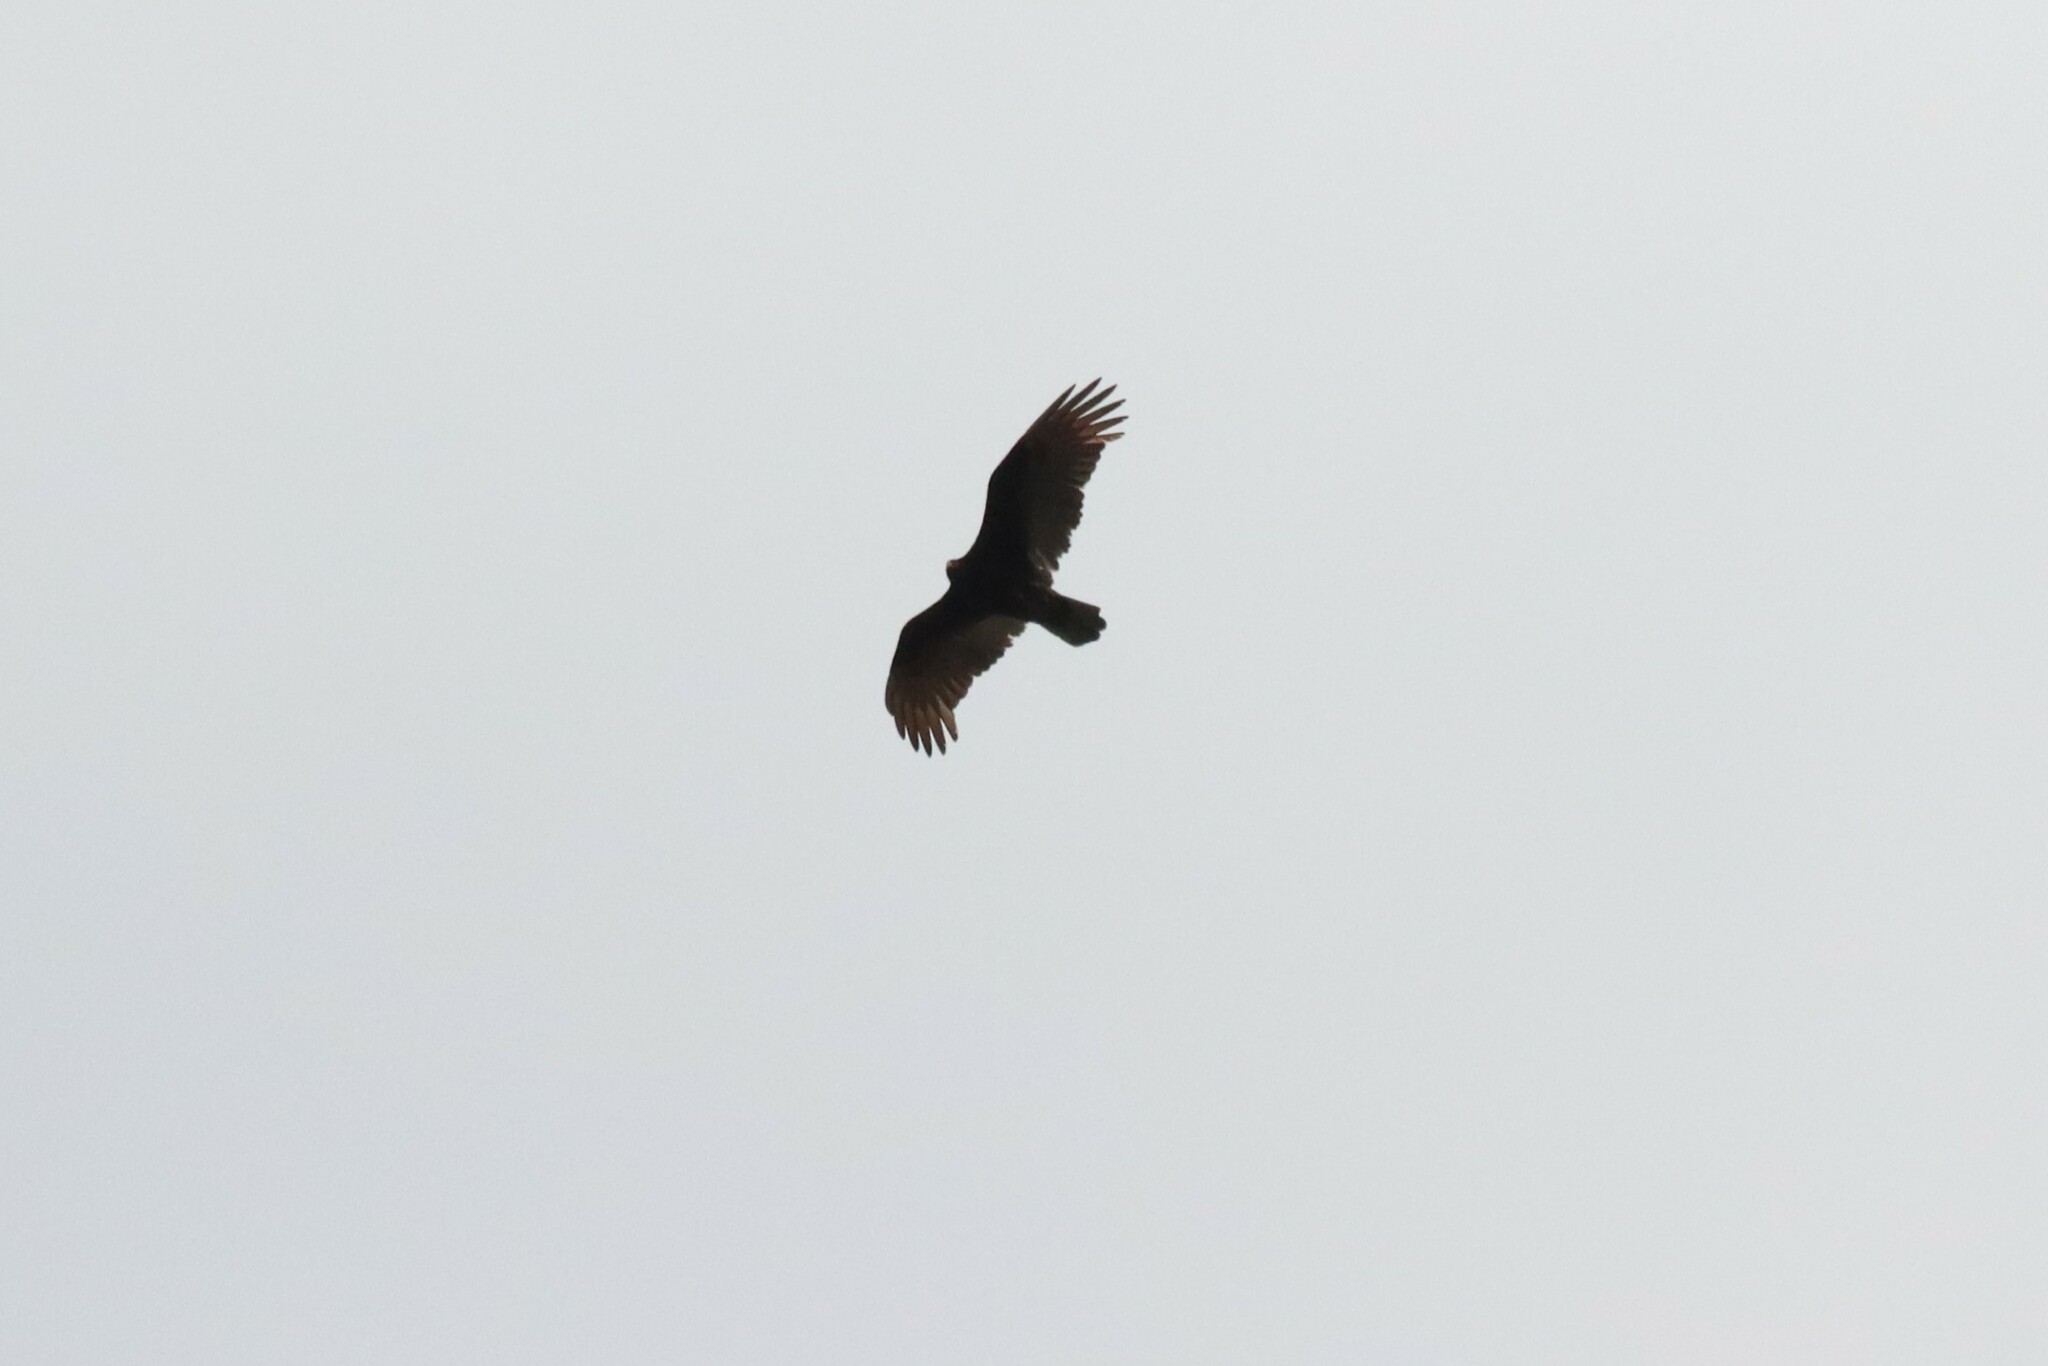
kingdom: Animalia
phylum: Chordata
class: Aves
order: Accipitriformes
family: Cathartidae
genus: Cathartes
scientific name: Cathartes aura
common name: Turkey vulture
